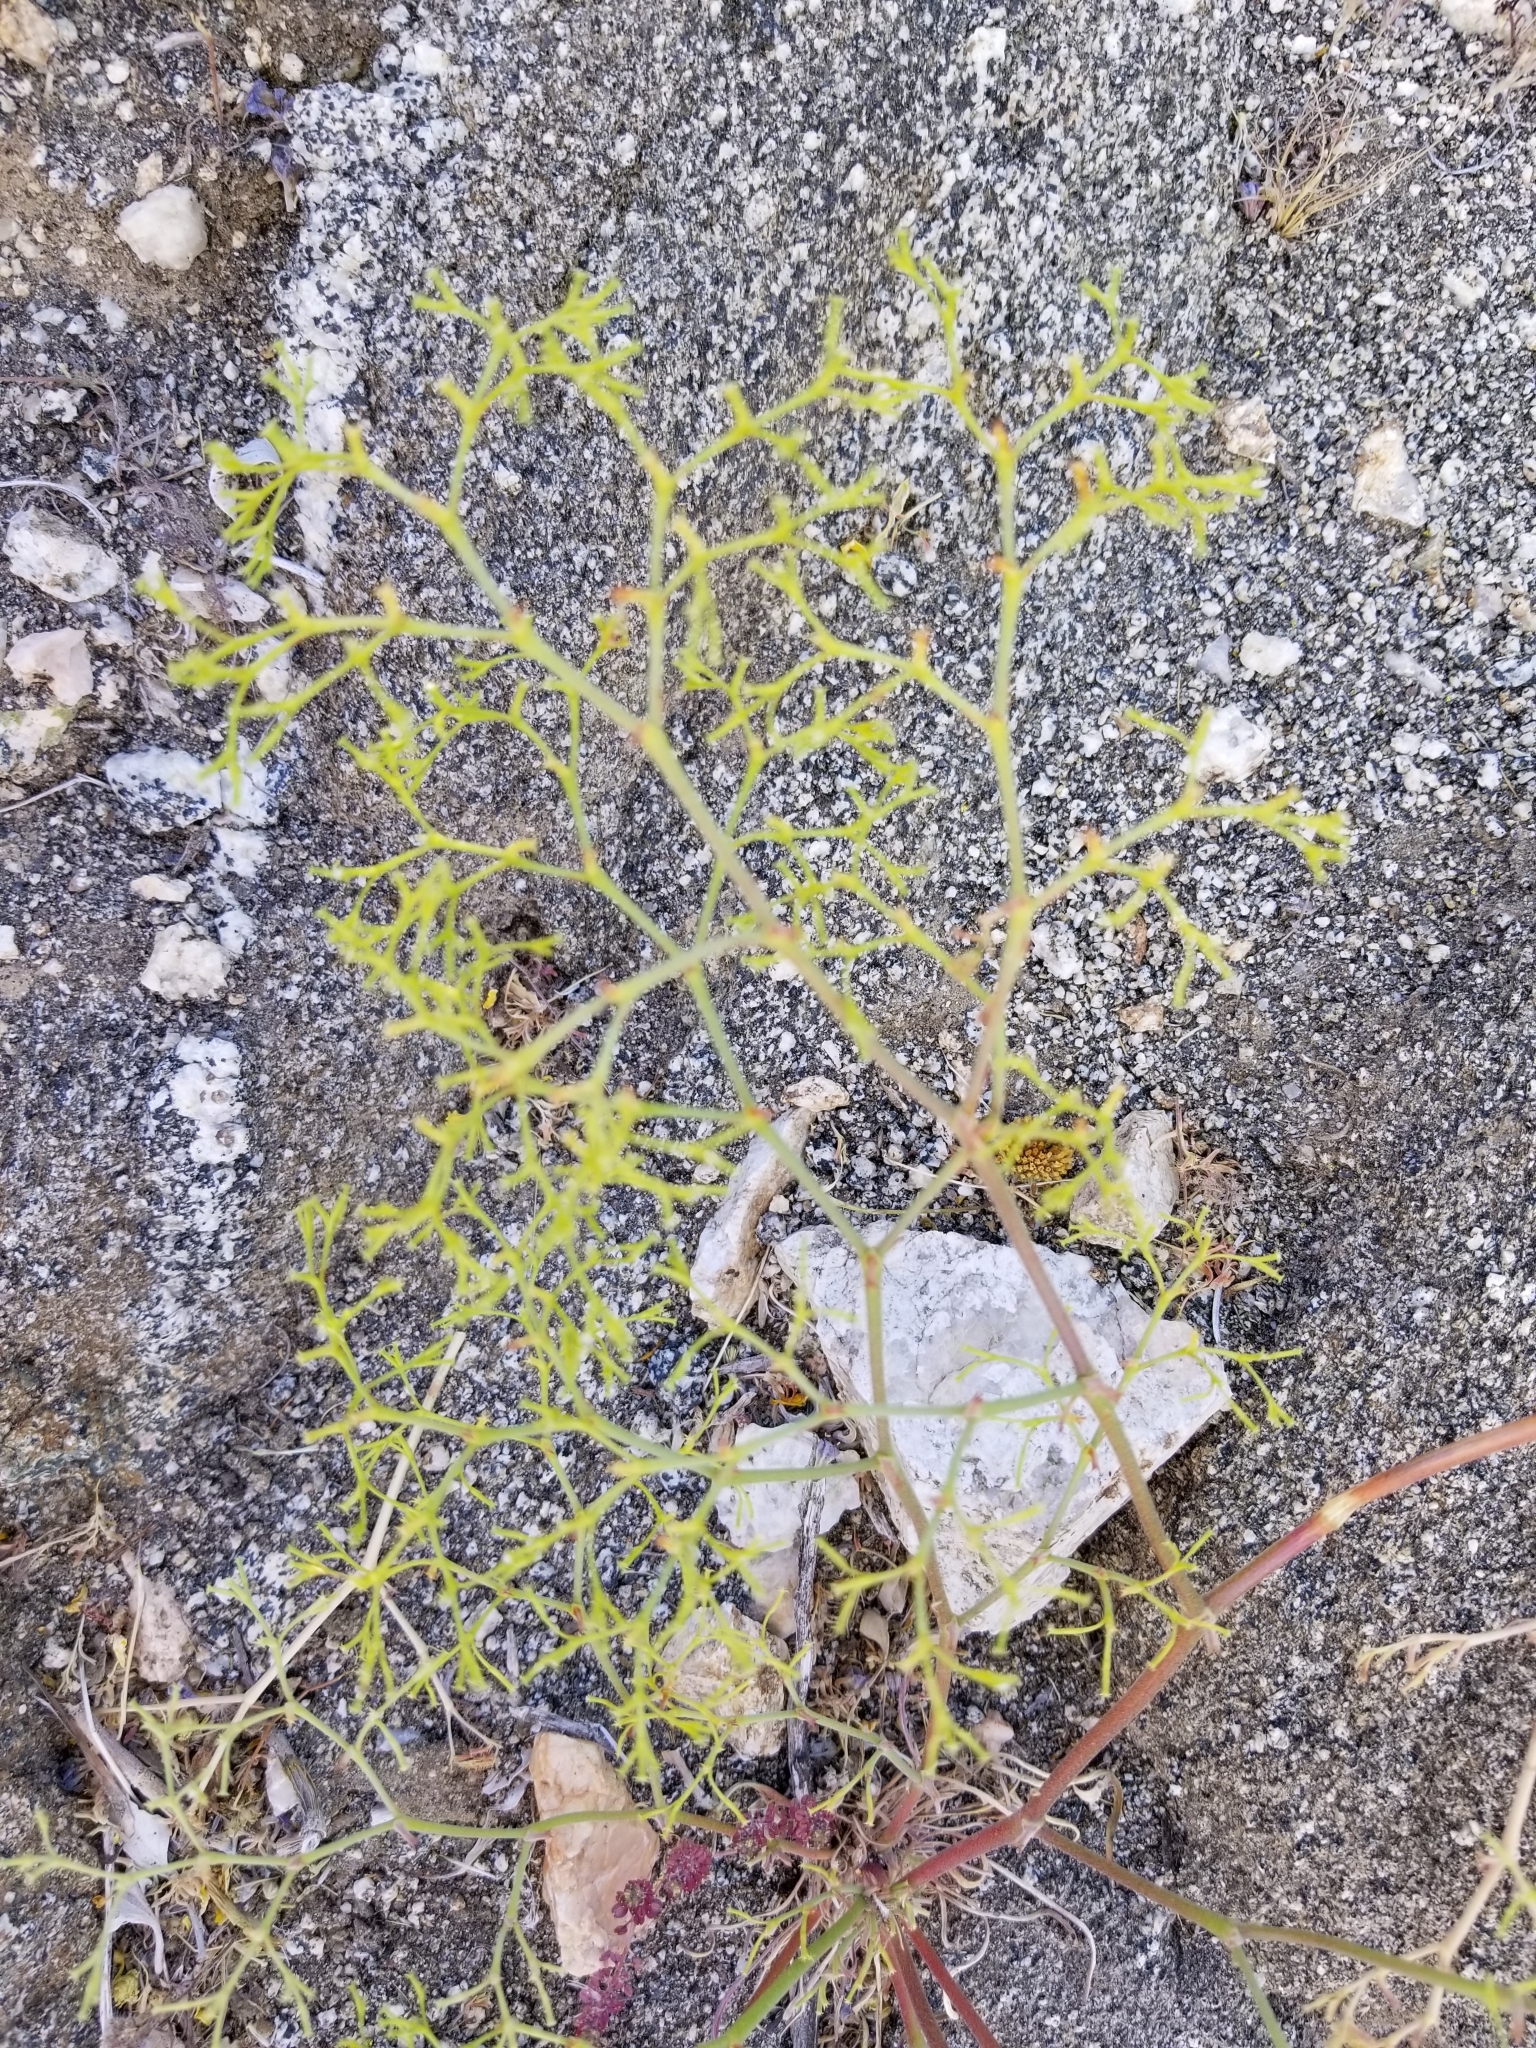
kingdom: Plantae
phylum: Tracheophyta
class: Magnoliopsida
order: Caryophyllales
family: Polygonaceae
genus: Chorizanthe
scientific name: Chorizanthe brevicornu
